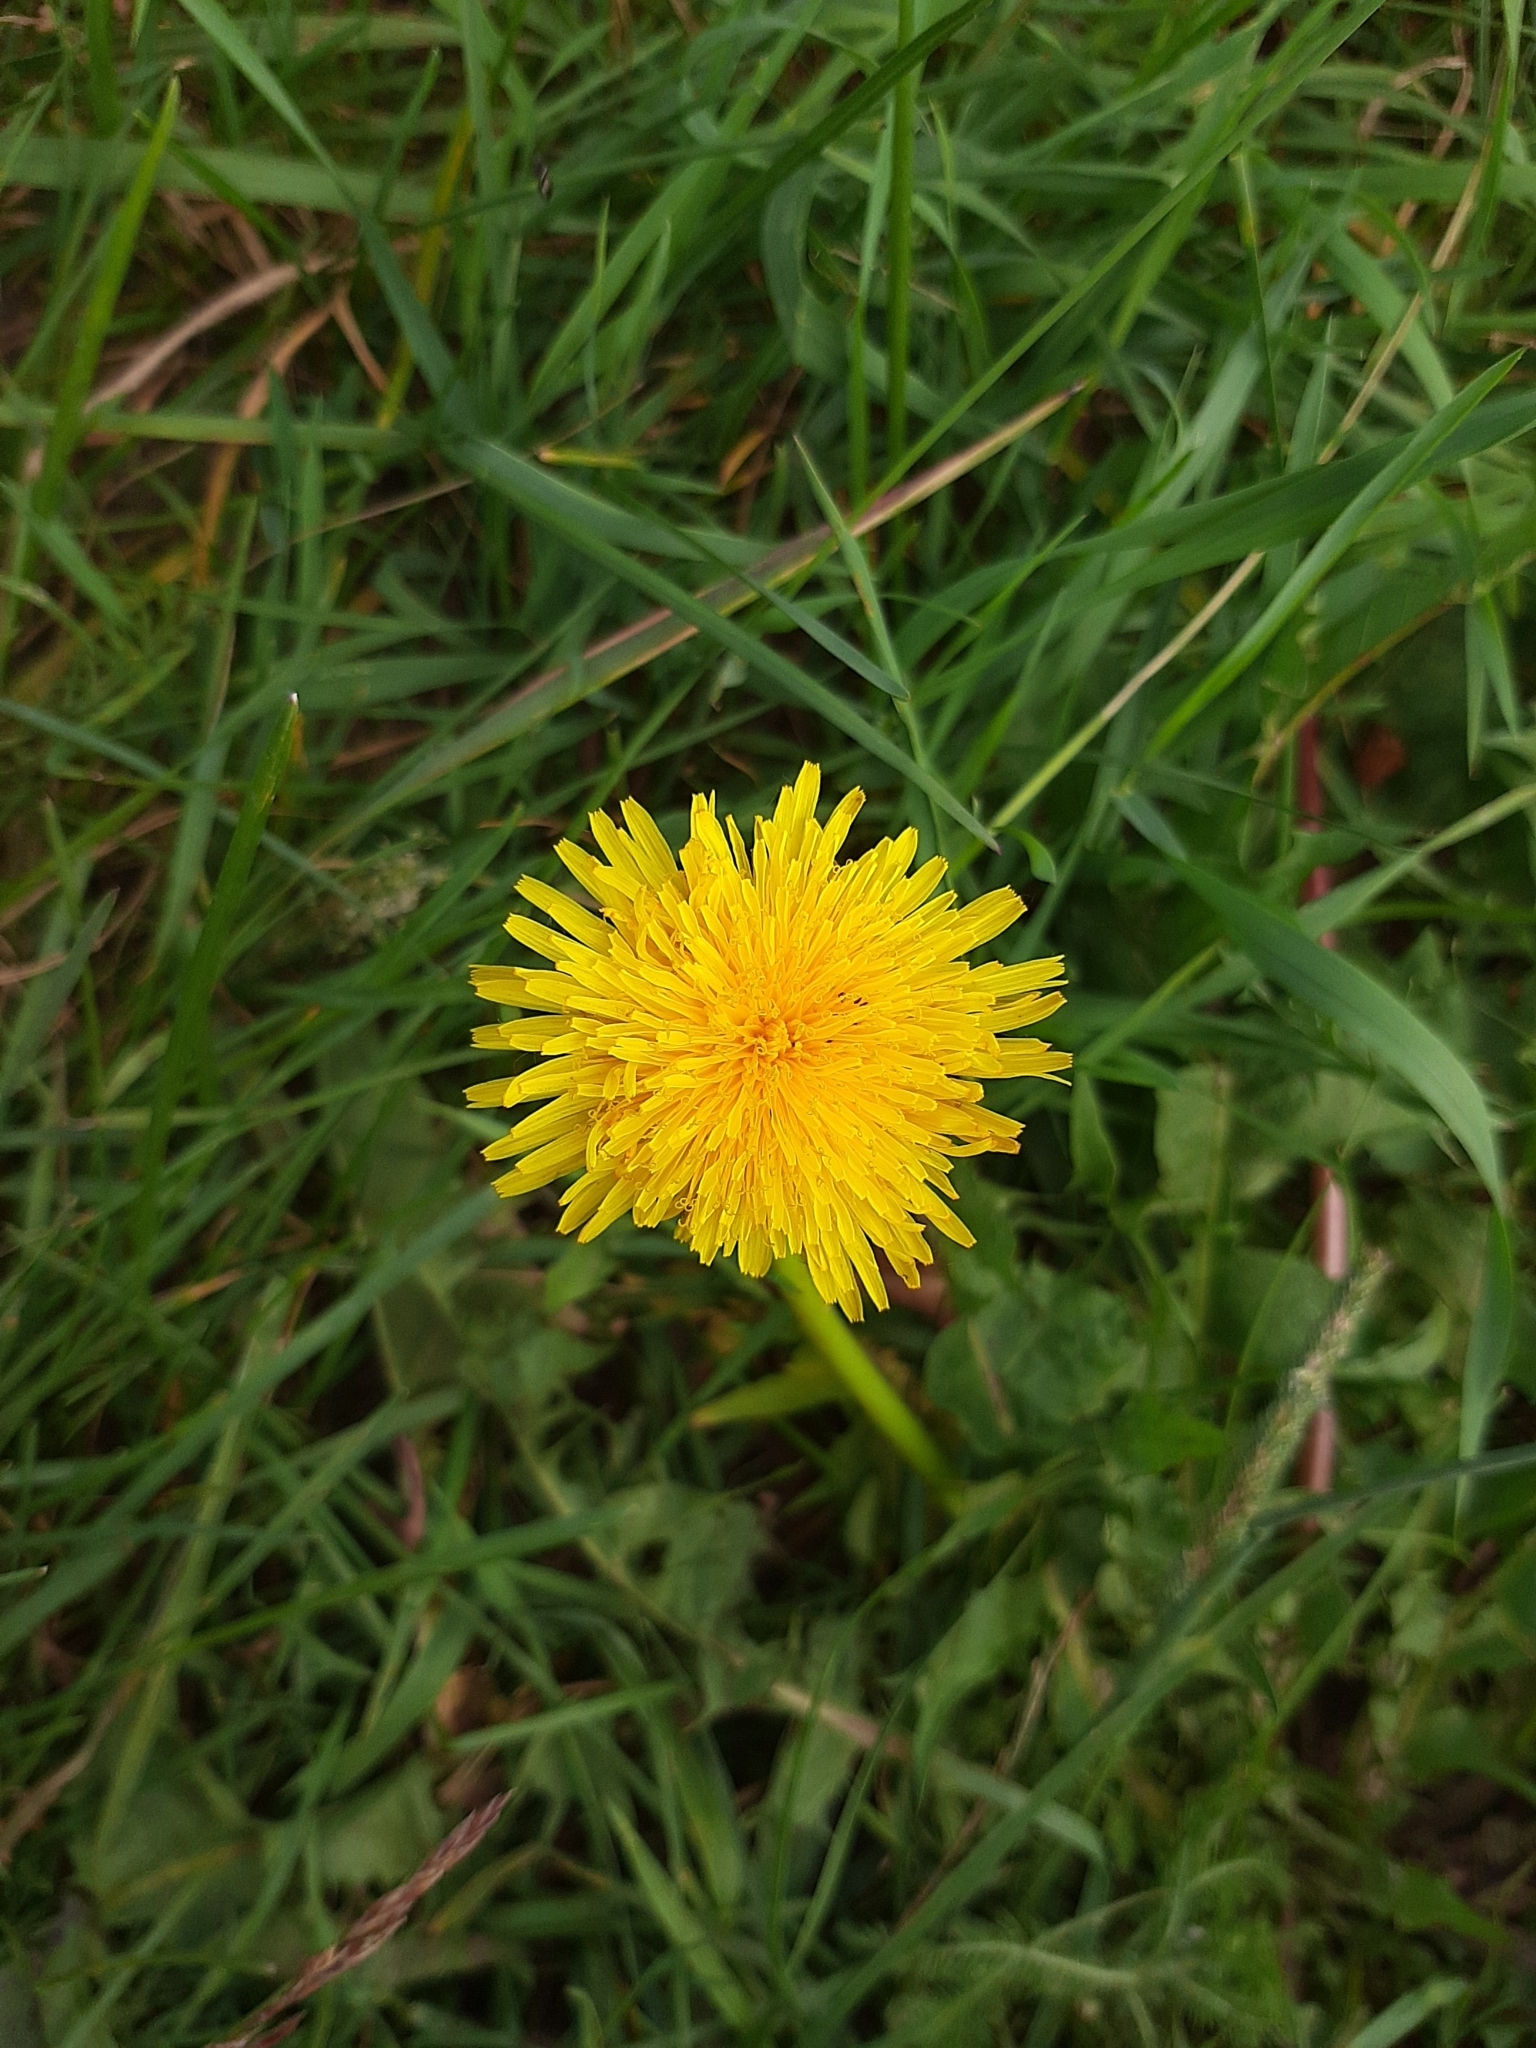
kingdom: Plantae
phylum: Tracheophyta
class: Magnoliopsida
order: Asterales
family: Asteraceae
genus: Taraxacum
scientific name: Taraxacum officinale
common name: Common dandelion
